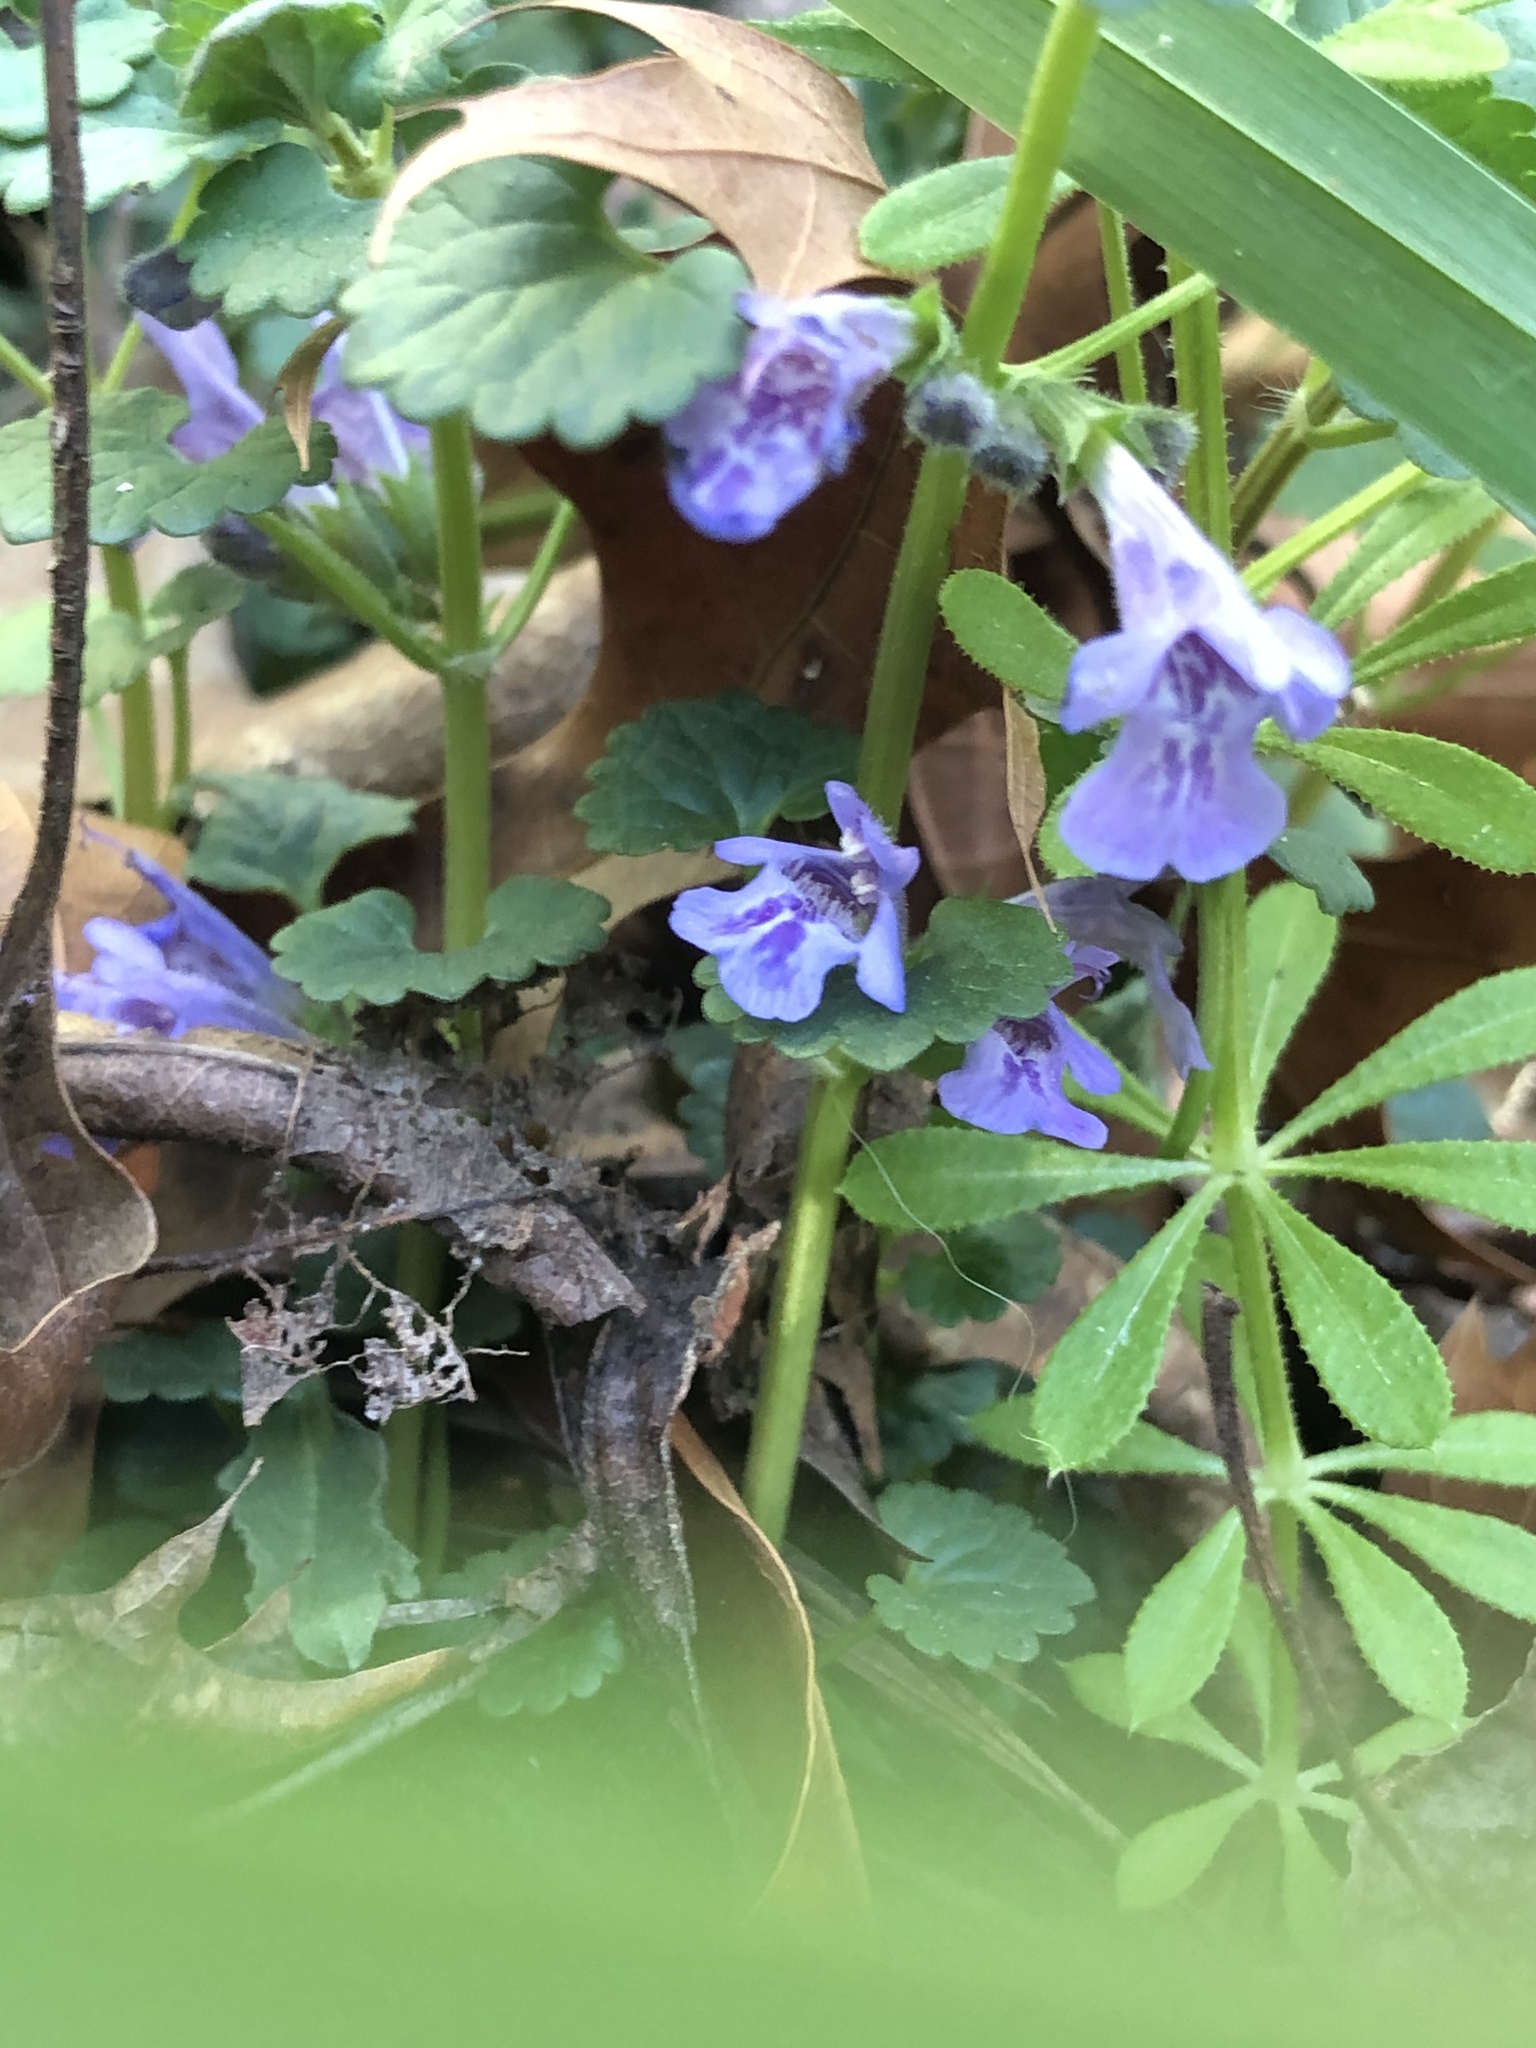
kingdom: Plantae
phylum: Tracheophyta
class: Magnoliopsida
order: Gentianales
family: Rubiaceae
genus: Galium
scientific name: Galium aparine
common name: Cleavers
